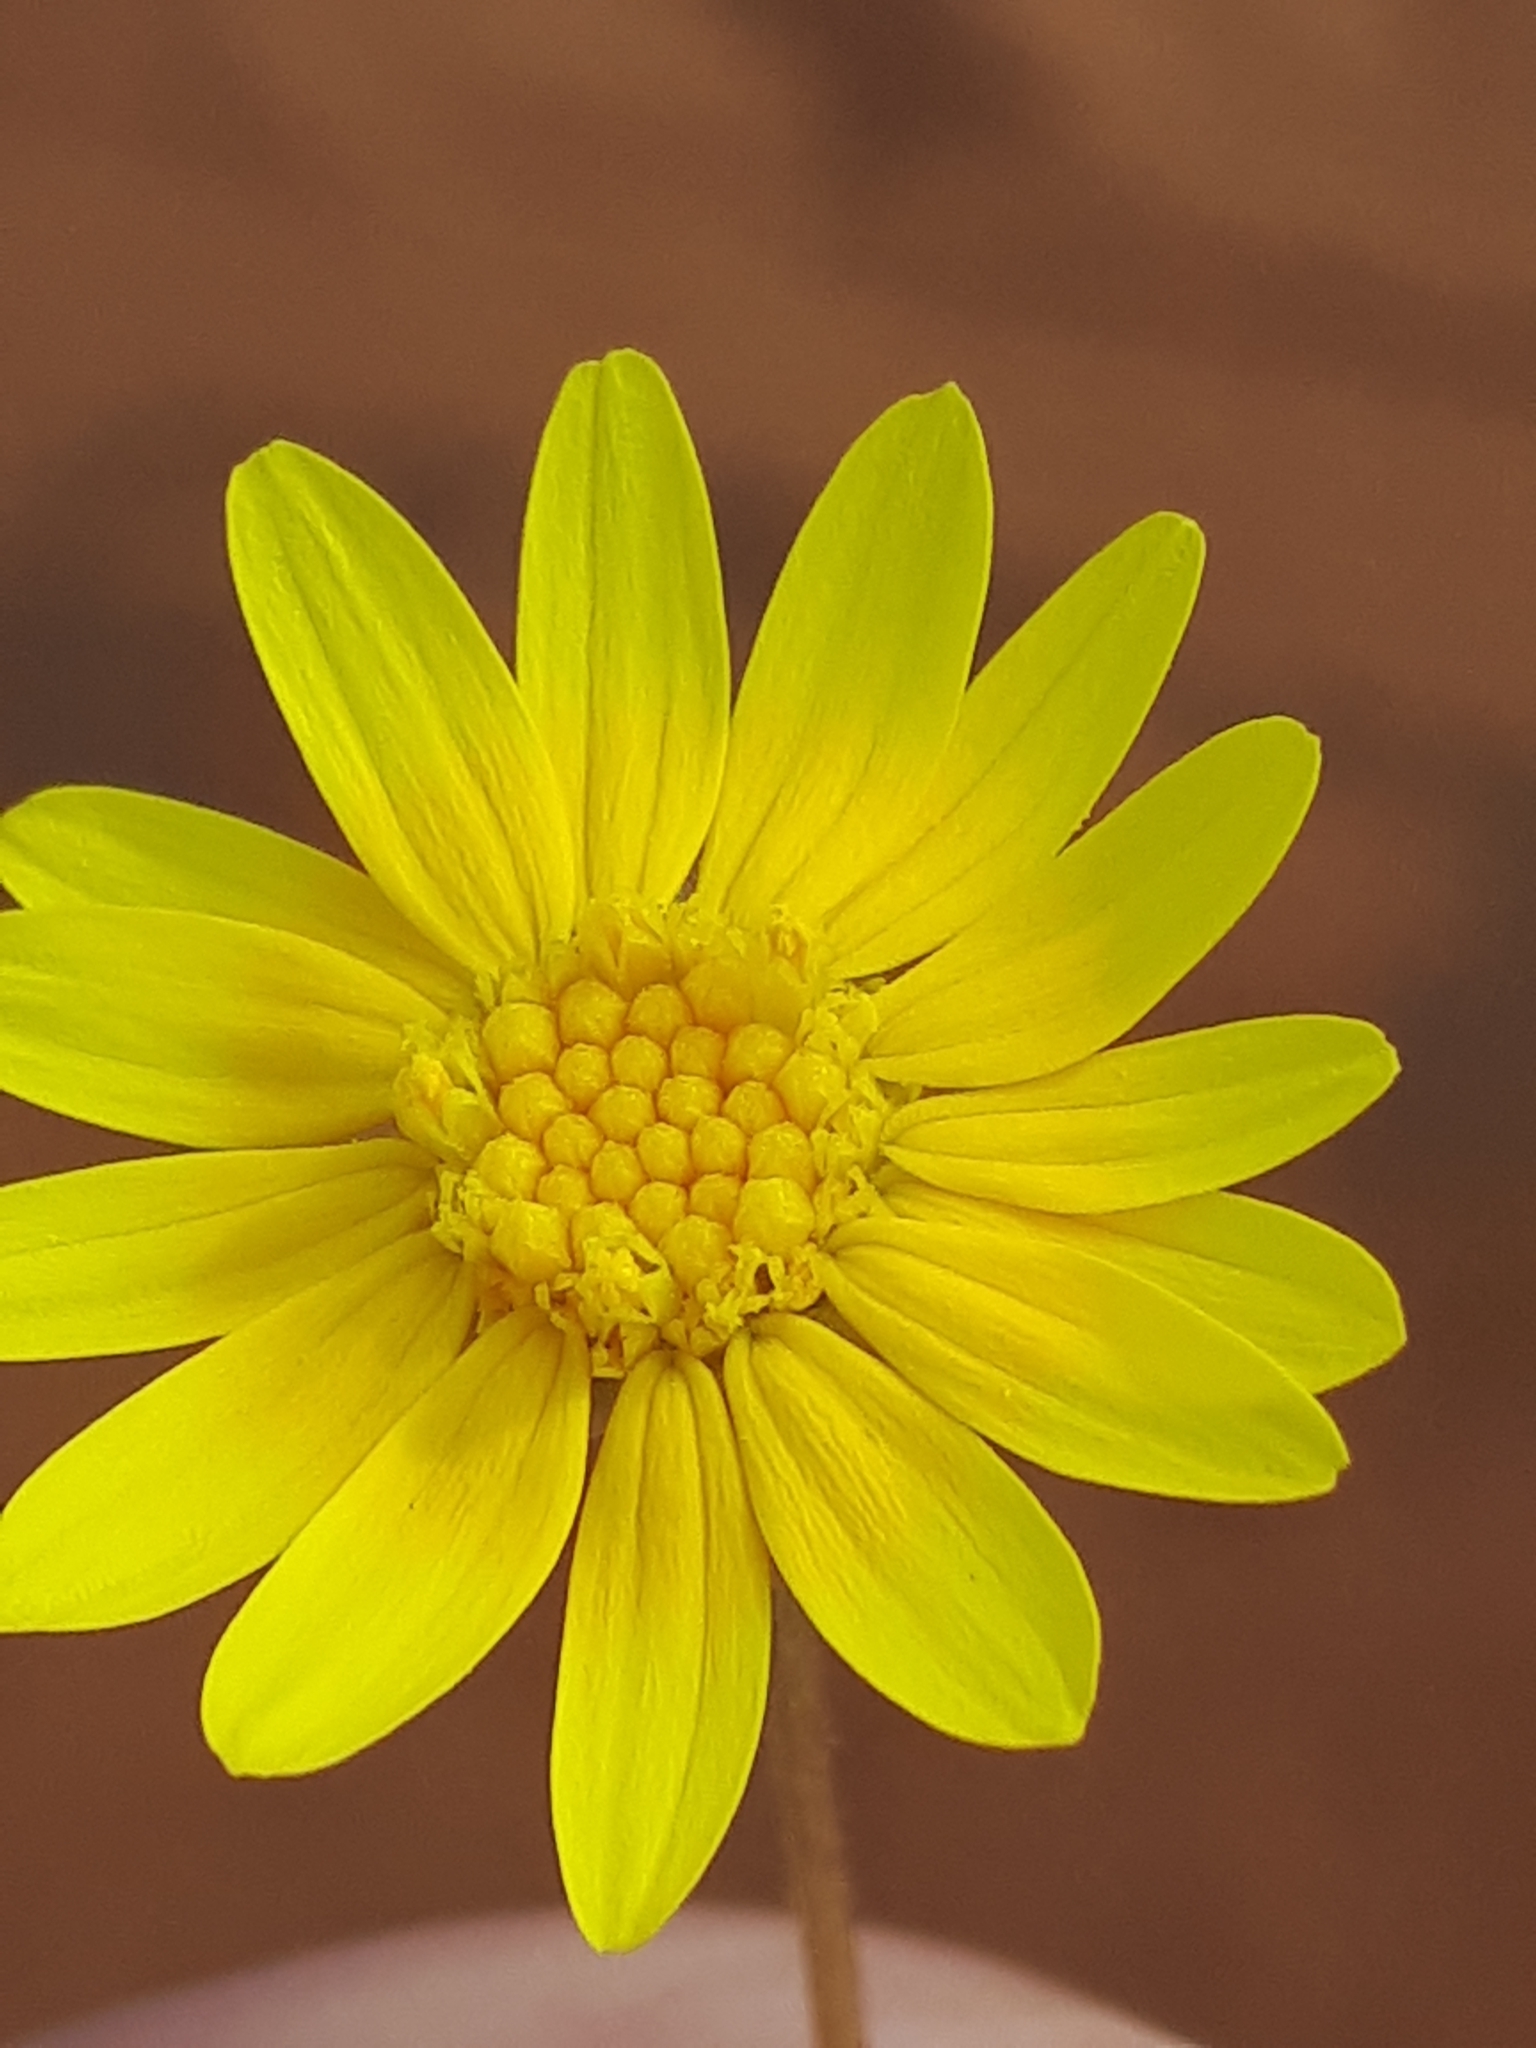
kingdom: Plantae
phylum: Tracheophyta
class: Magnoliopsida
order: Asterales
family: Asteraceae
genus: Ursinia
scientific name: Ursinia nana
